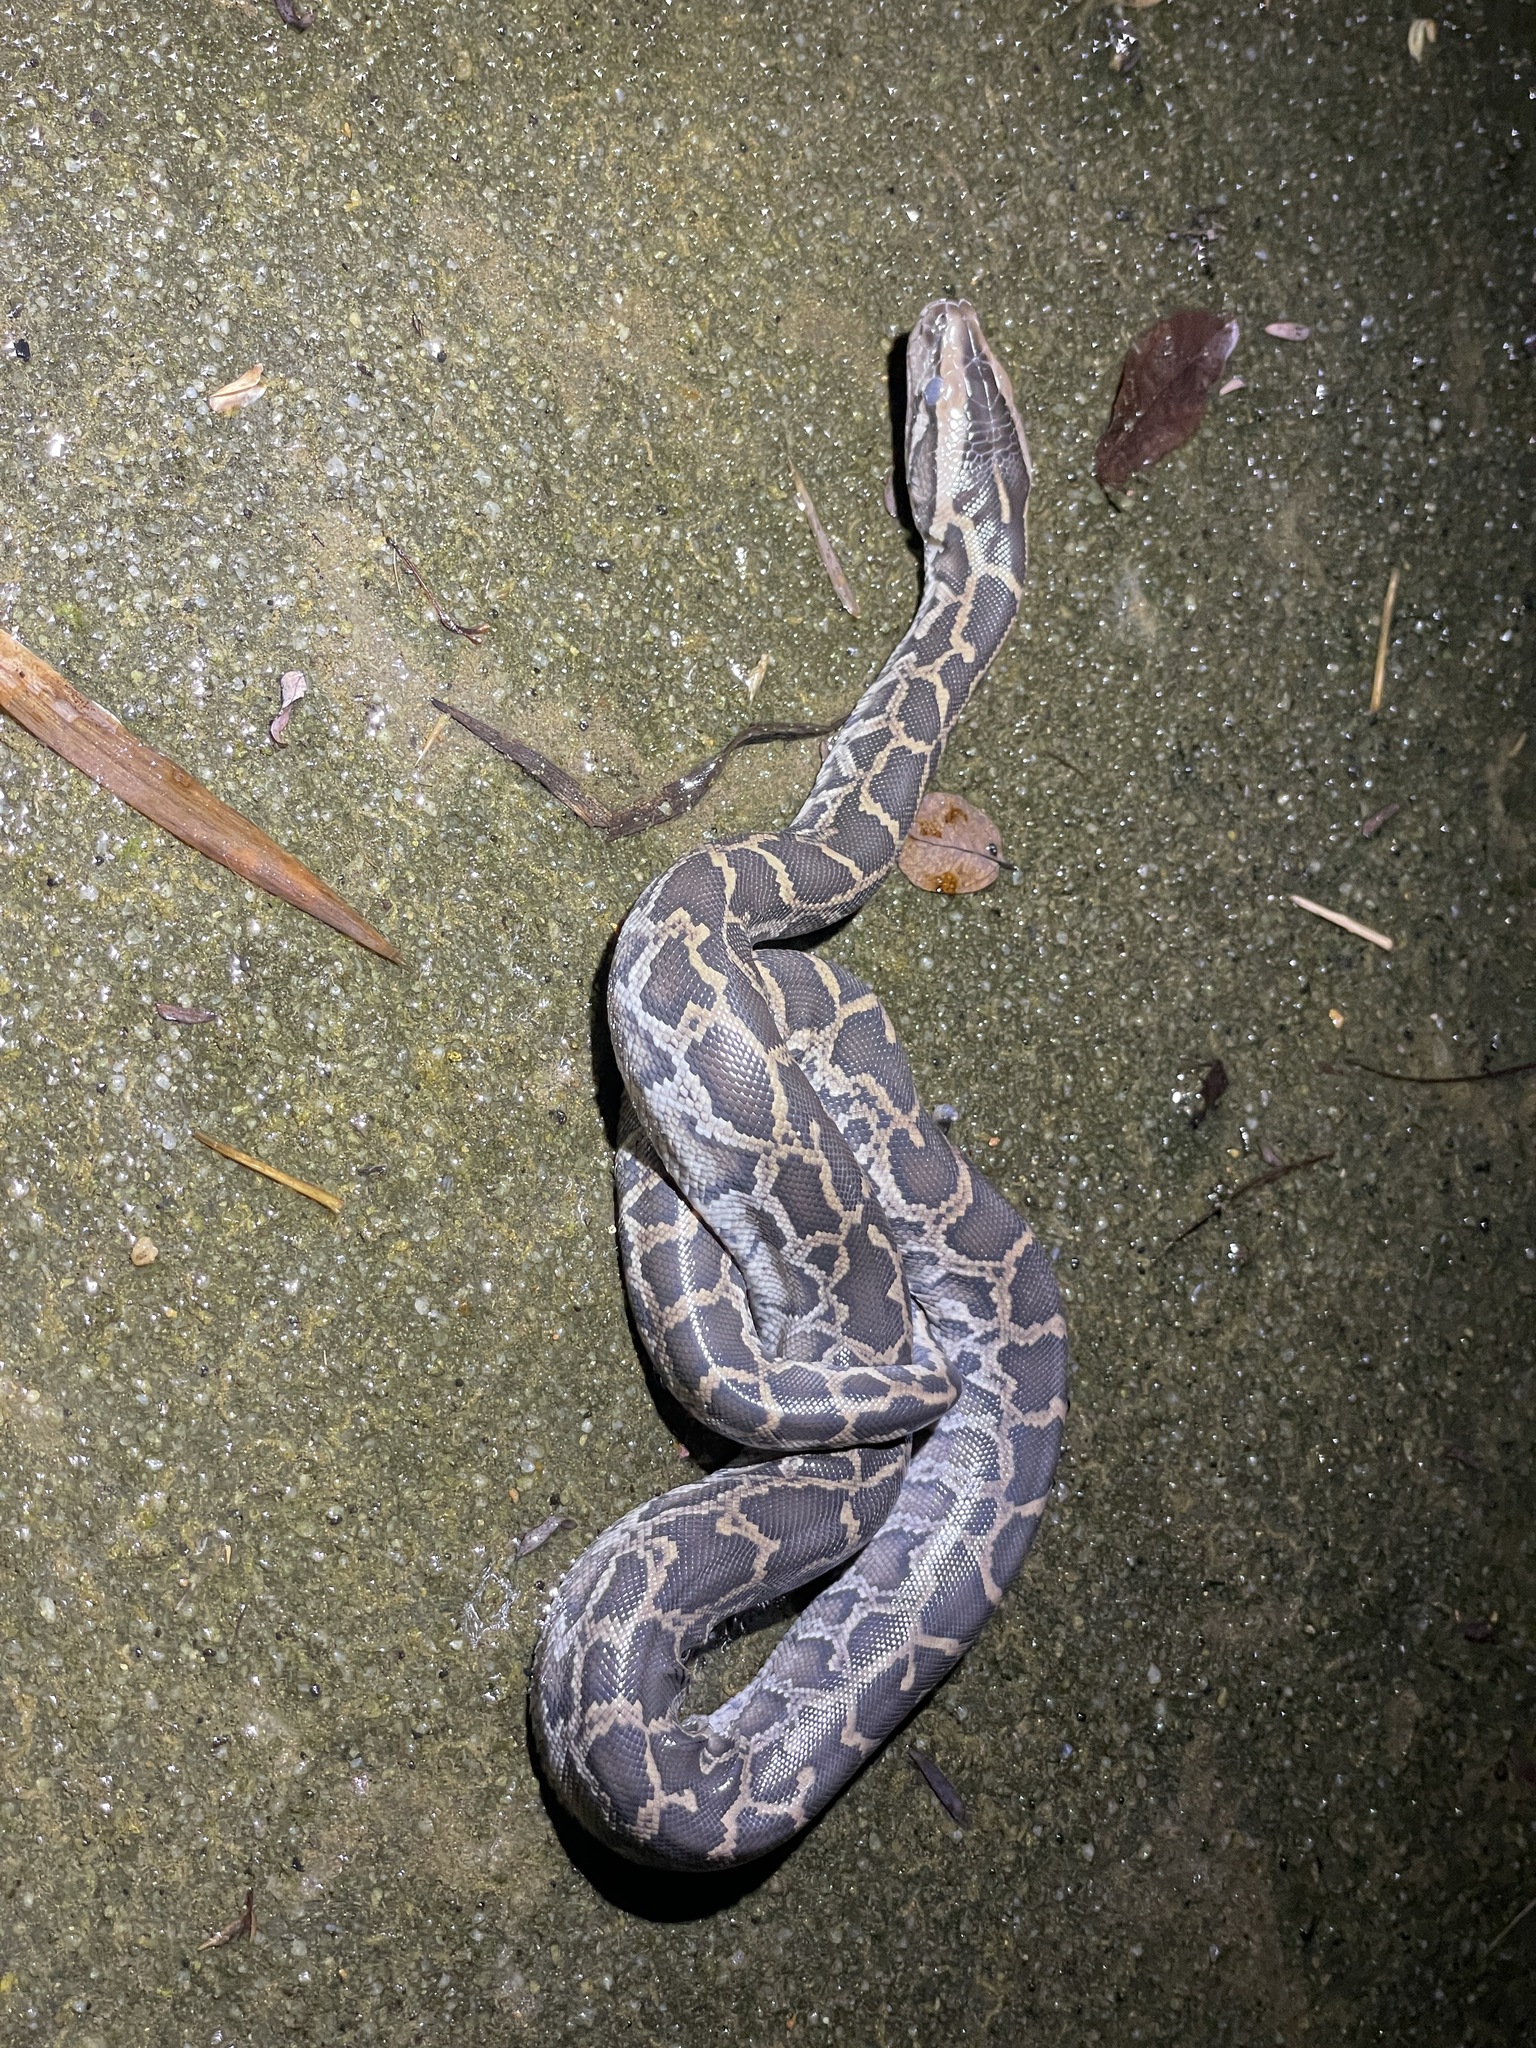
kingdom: Animalia
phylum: Chordata
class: Squamata
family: Pythonidae
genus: Python
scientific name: Python bivittatus
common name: Burmese python
